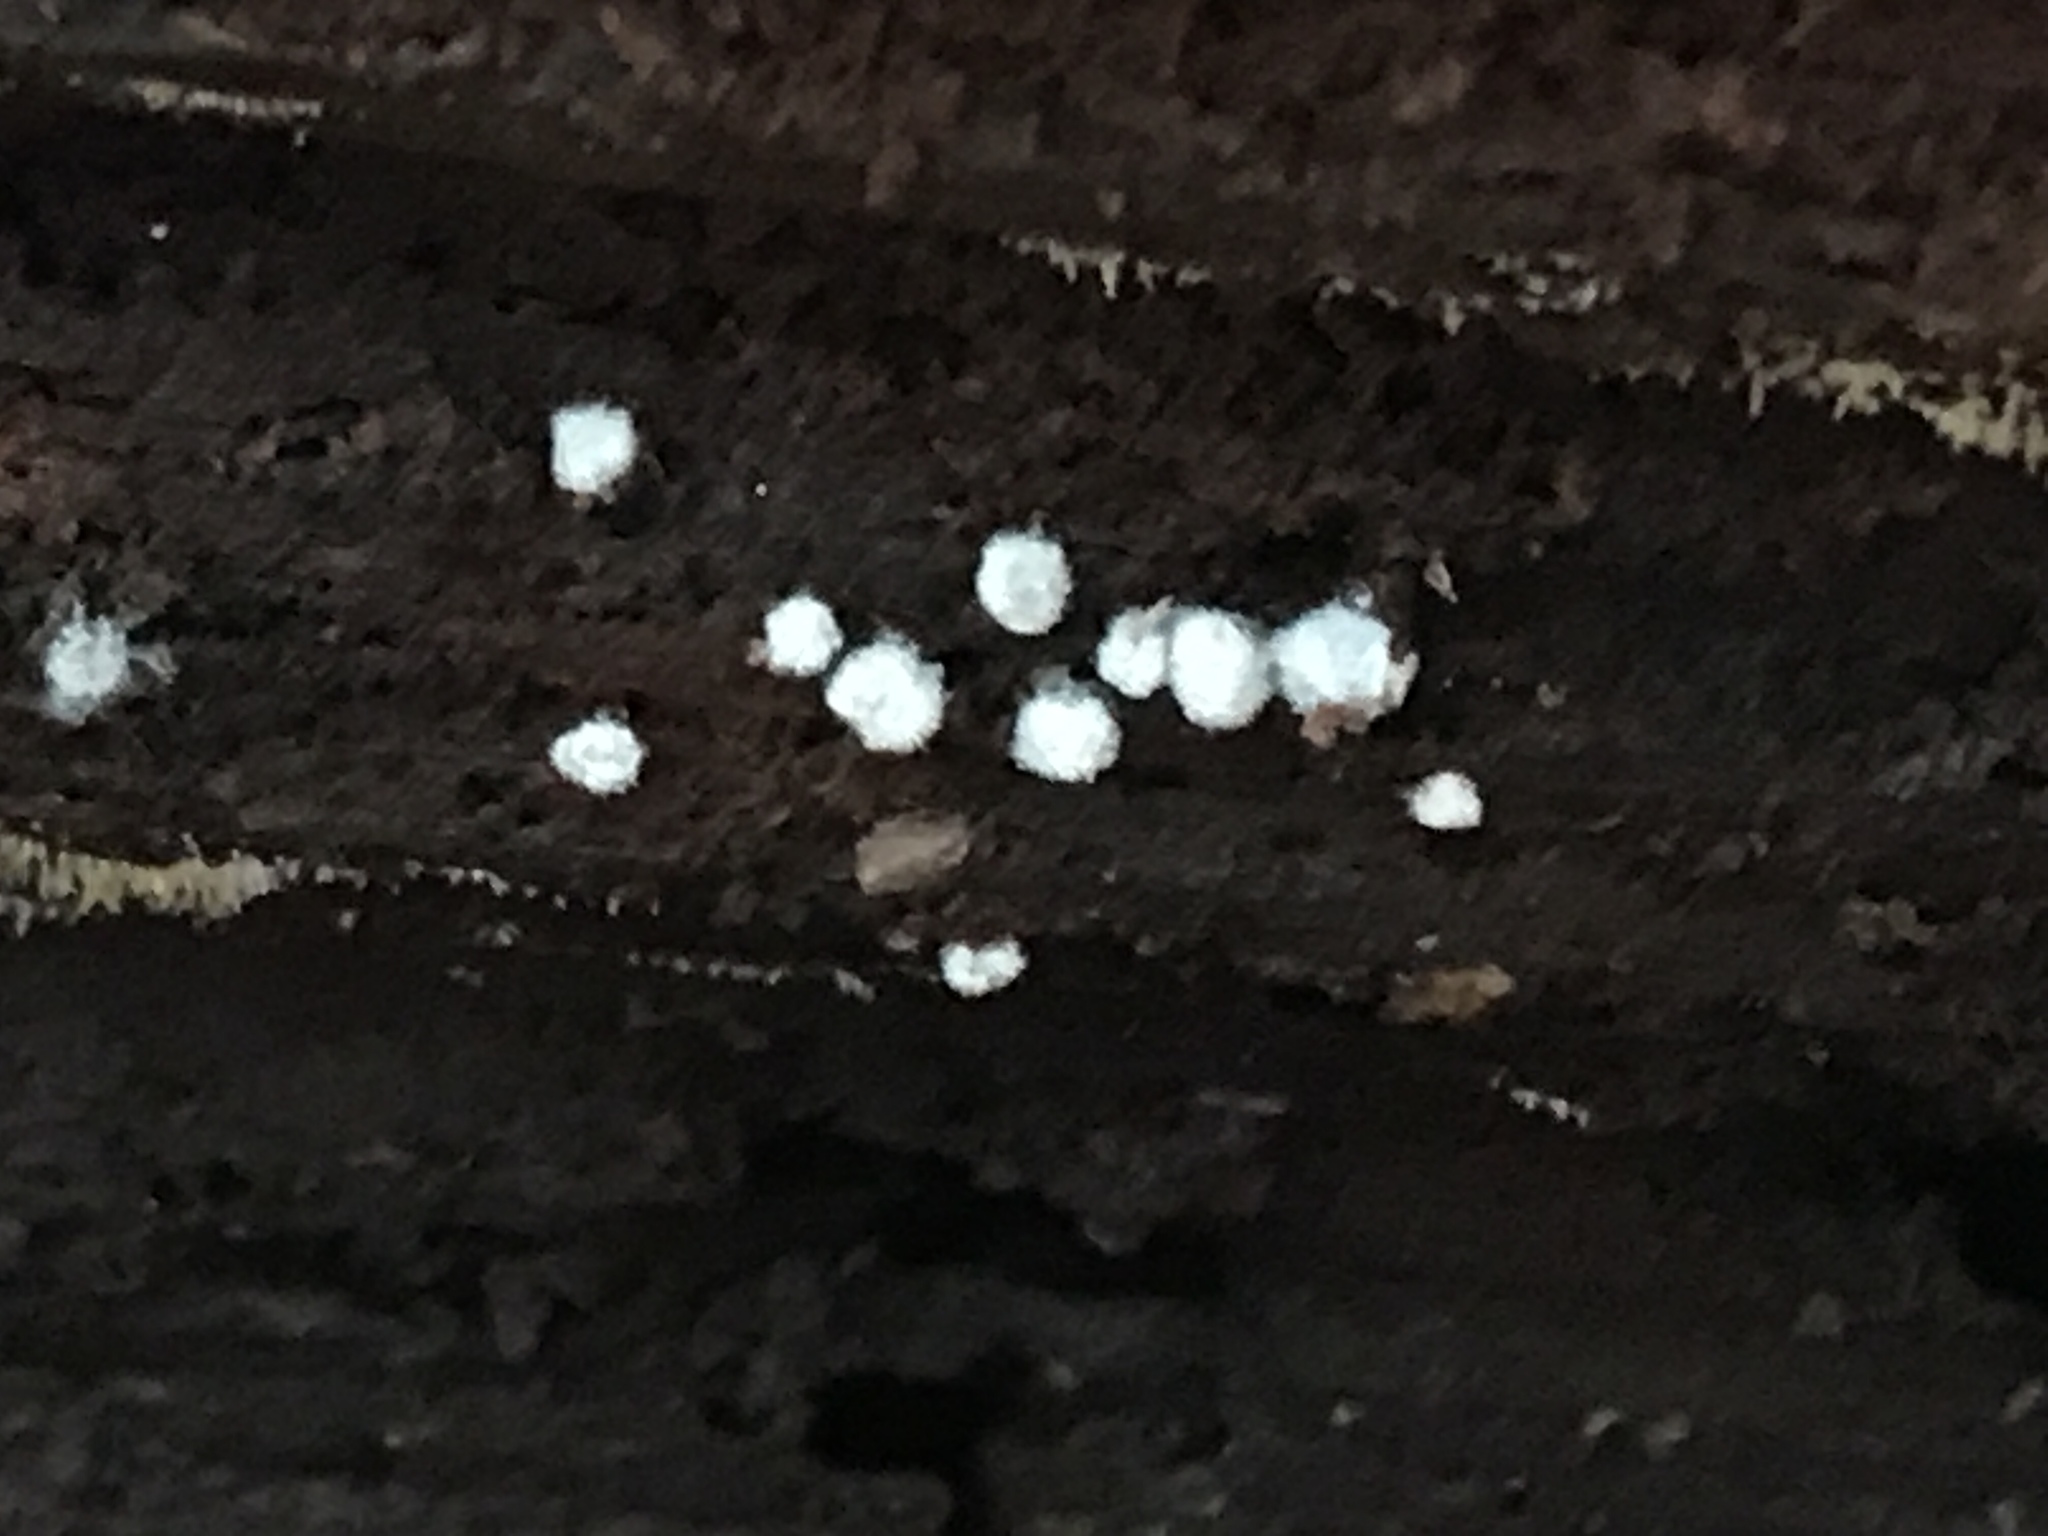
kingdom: Protozoa
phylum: Mycetozoa
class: Protosteliomycetes
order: Ceratiomyxales
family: Ceratiomyxaceae
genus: Ceratiomyxa
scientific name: Ceratiomyxa fruticulosa
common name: Honeycomb coral slime mold
